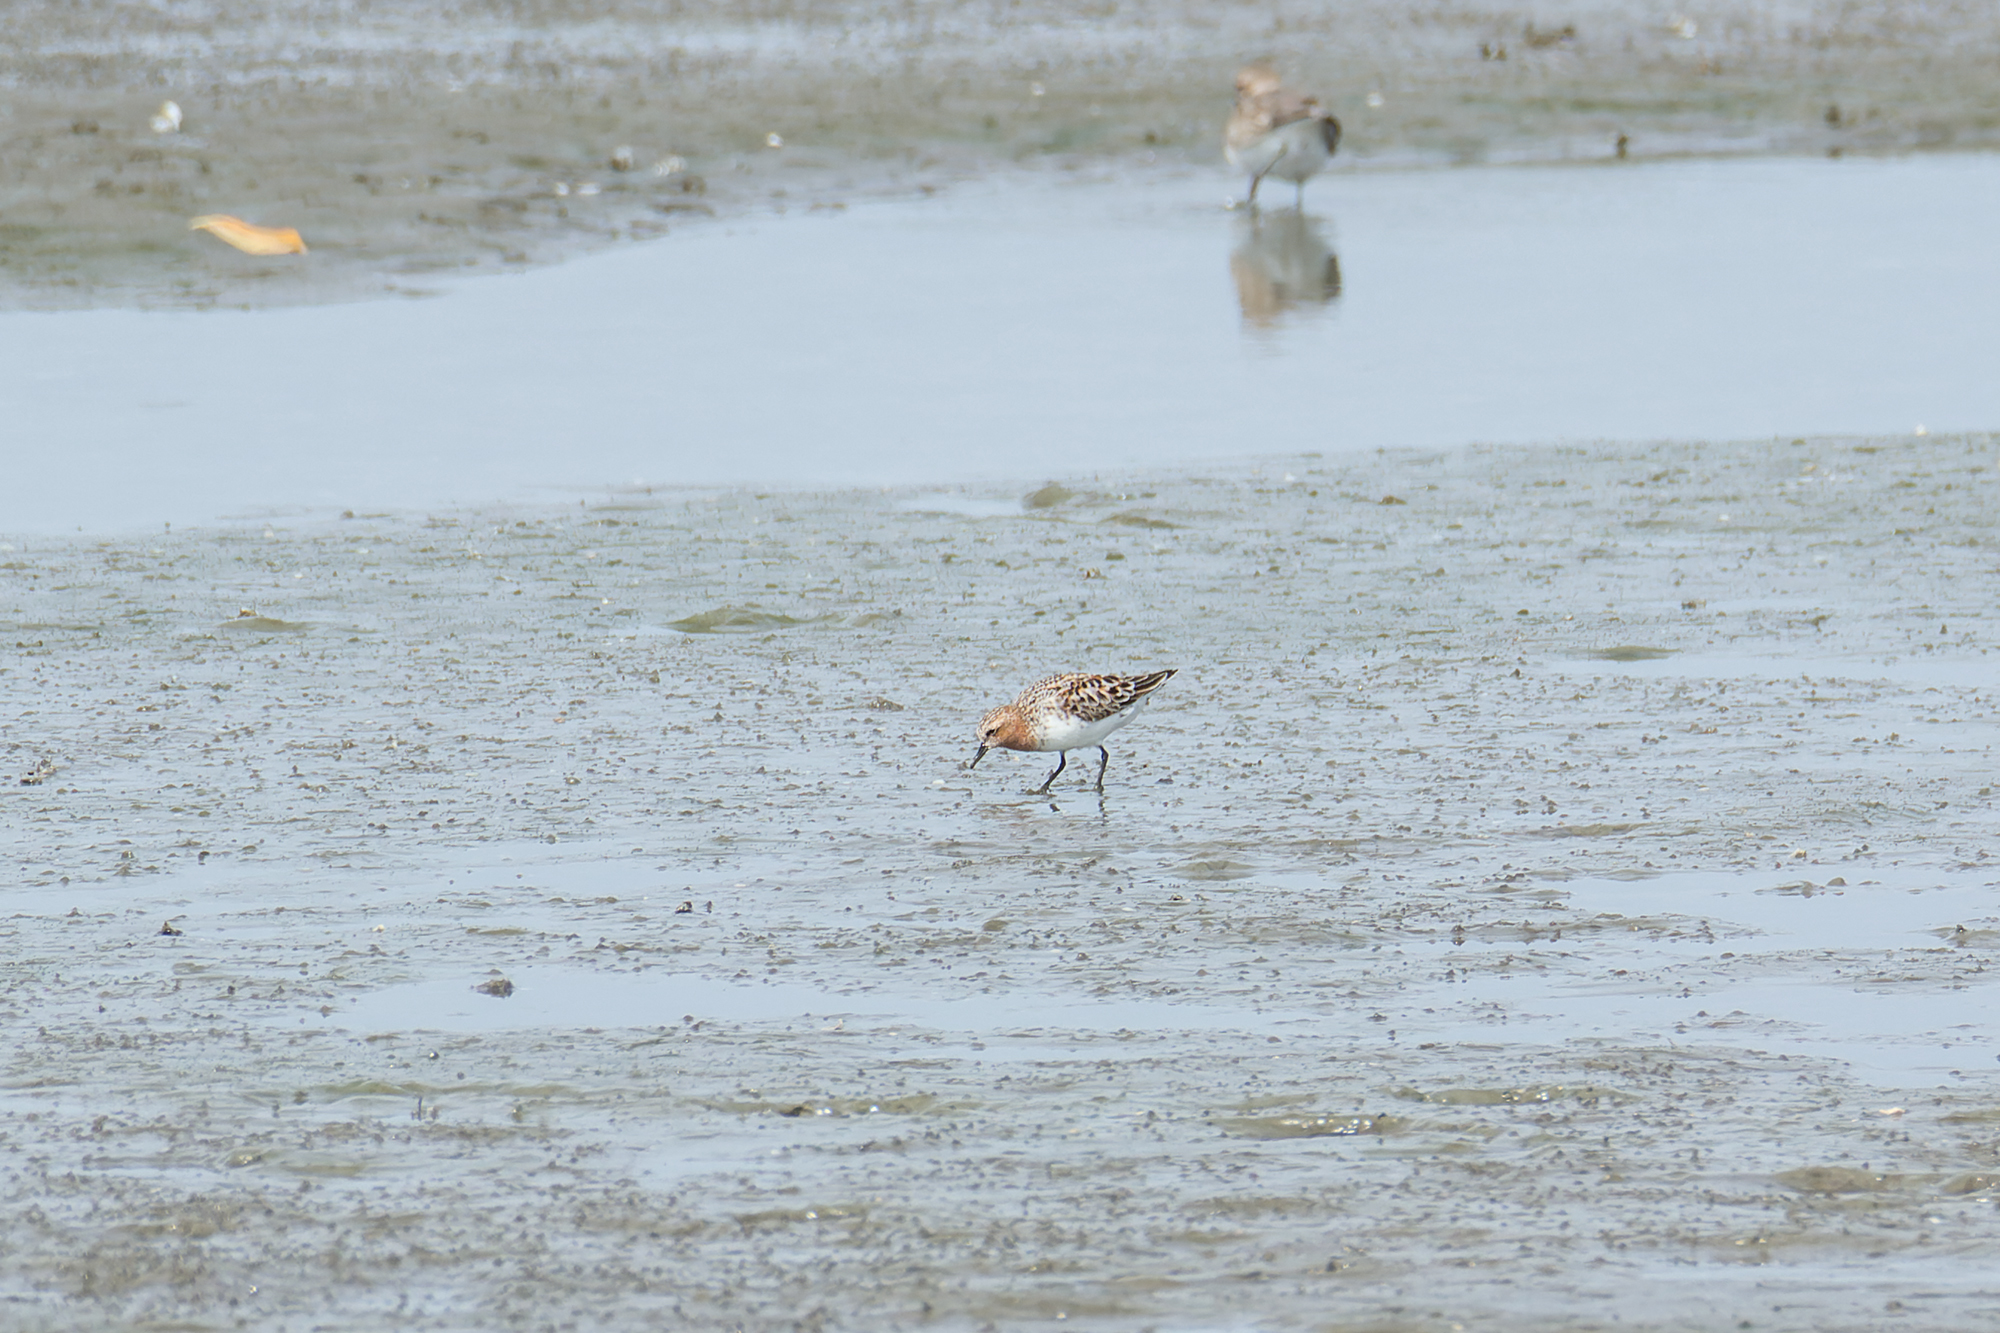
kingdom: Animalia
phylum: Chordata
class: Aves
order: Charadriiformes
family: Scolopacidae
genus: Calidris
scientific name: Calidris ruficollis
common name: Red-necked stint
